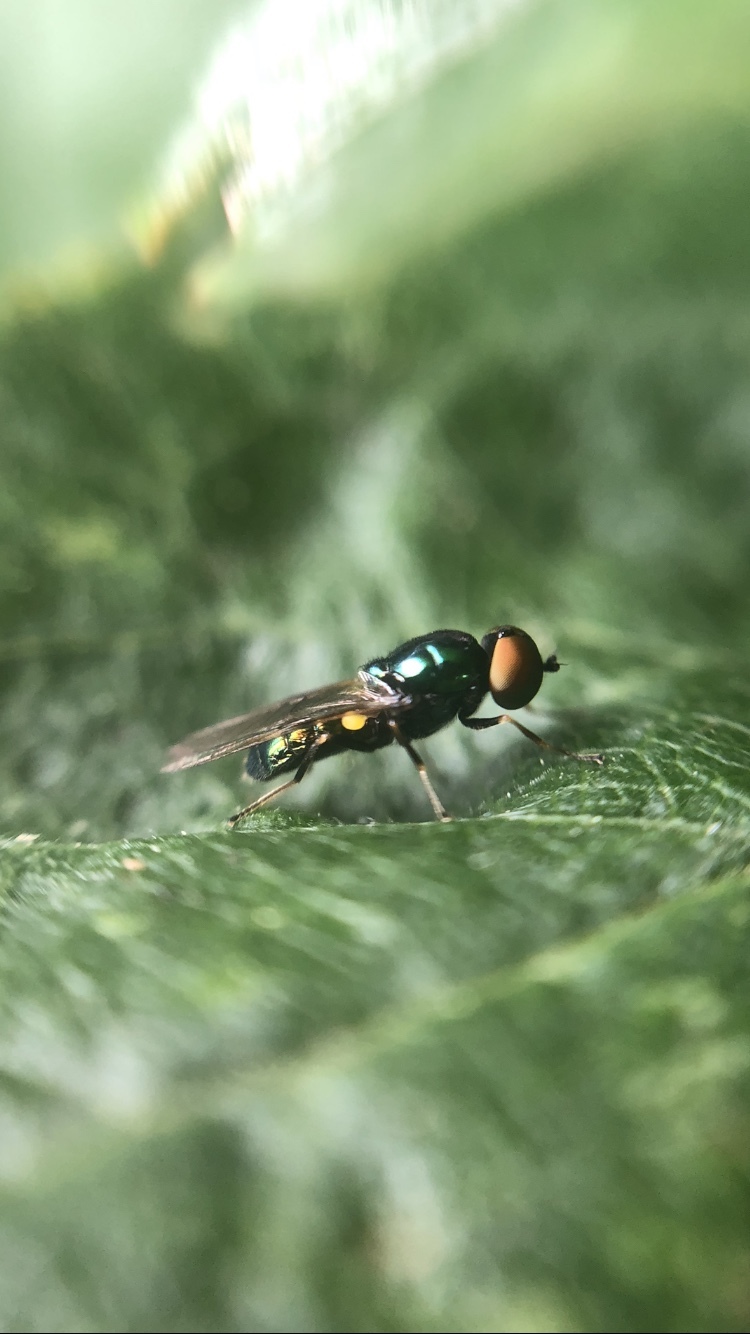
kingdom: Animalia
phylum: Arthropoda
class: Insecta
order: Diptera
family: Stratiomyidae
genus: Microchrysa
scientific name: Microchrysa polita
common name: Black-horned gem
